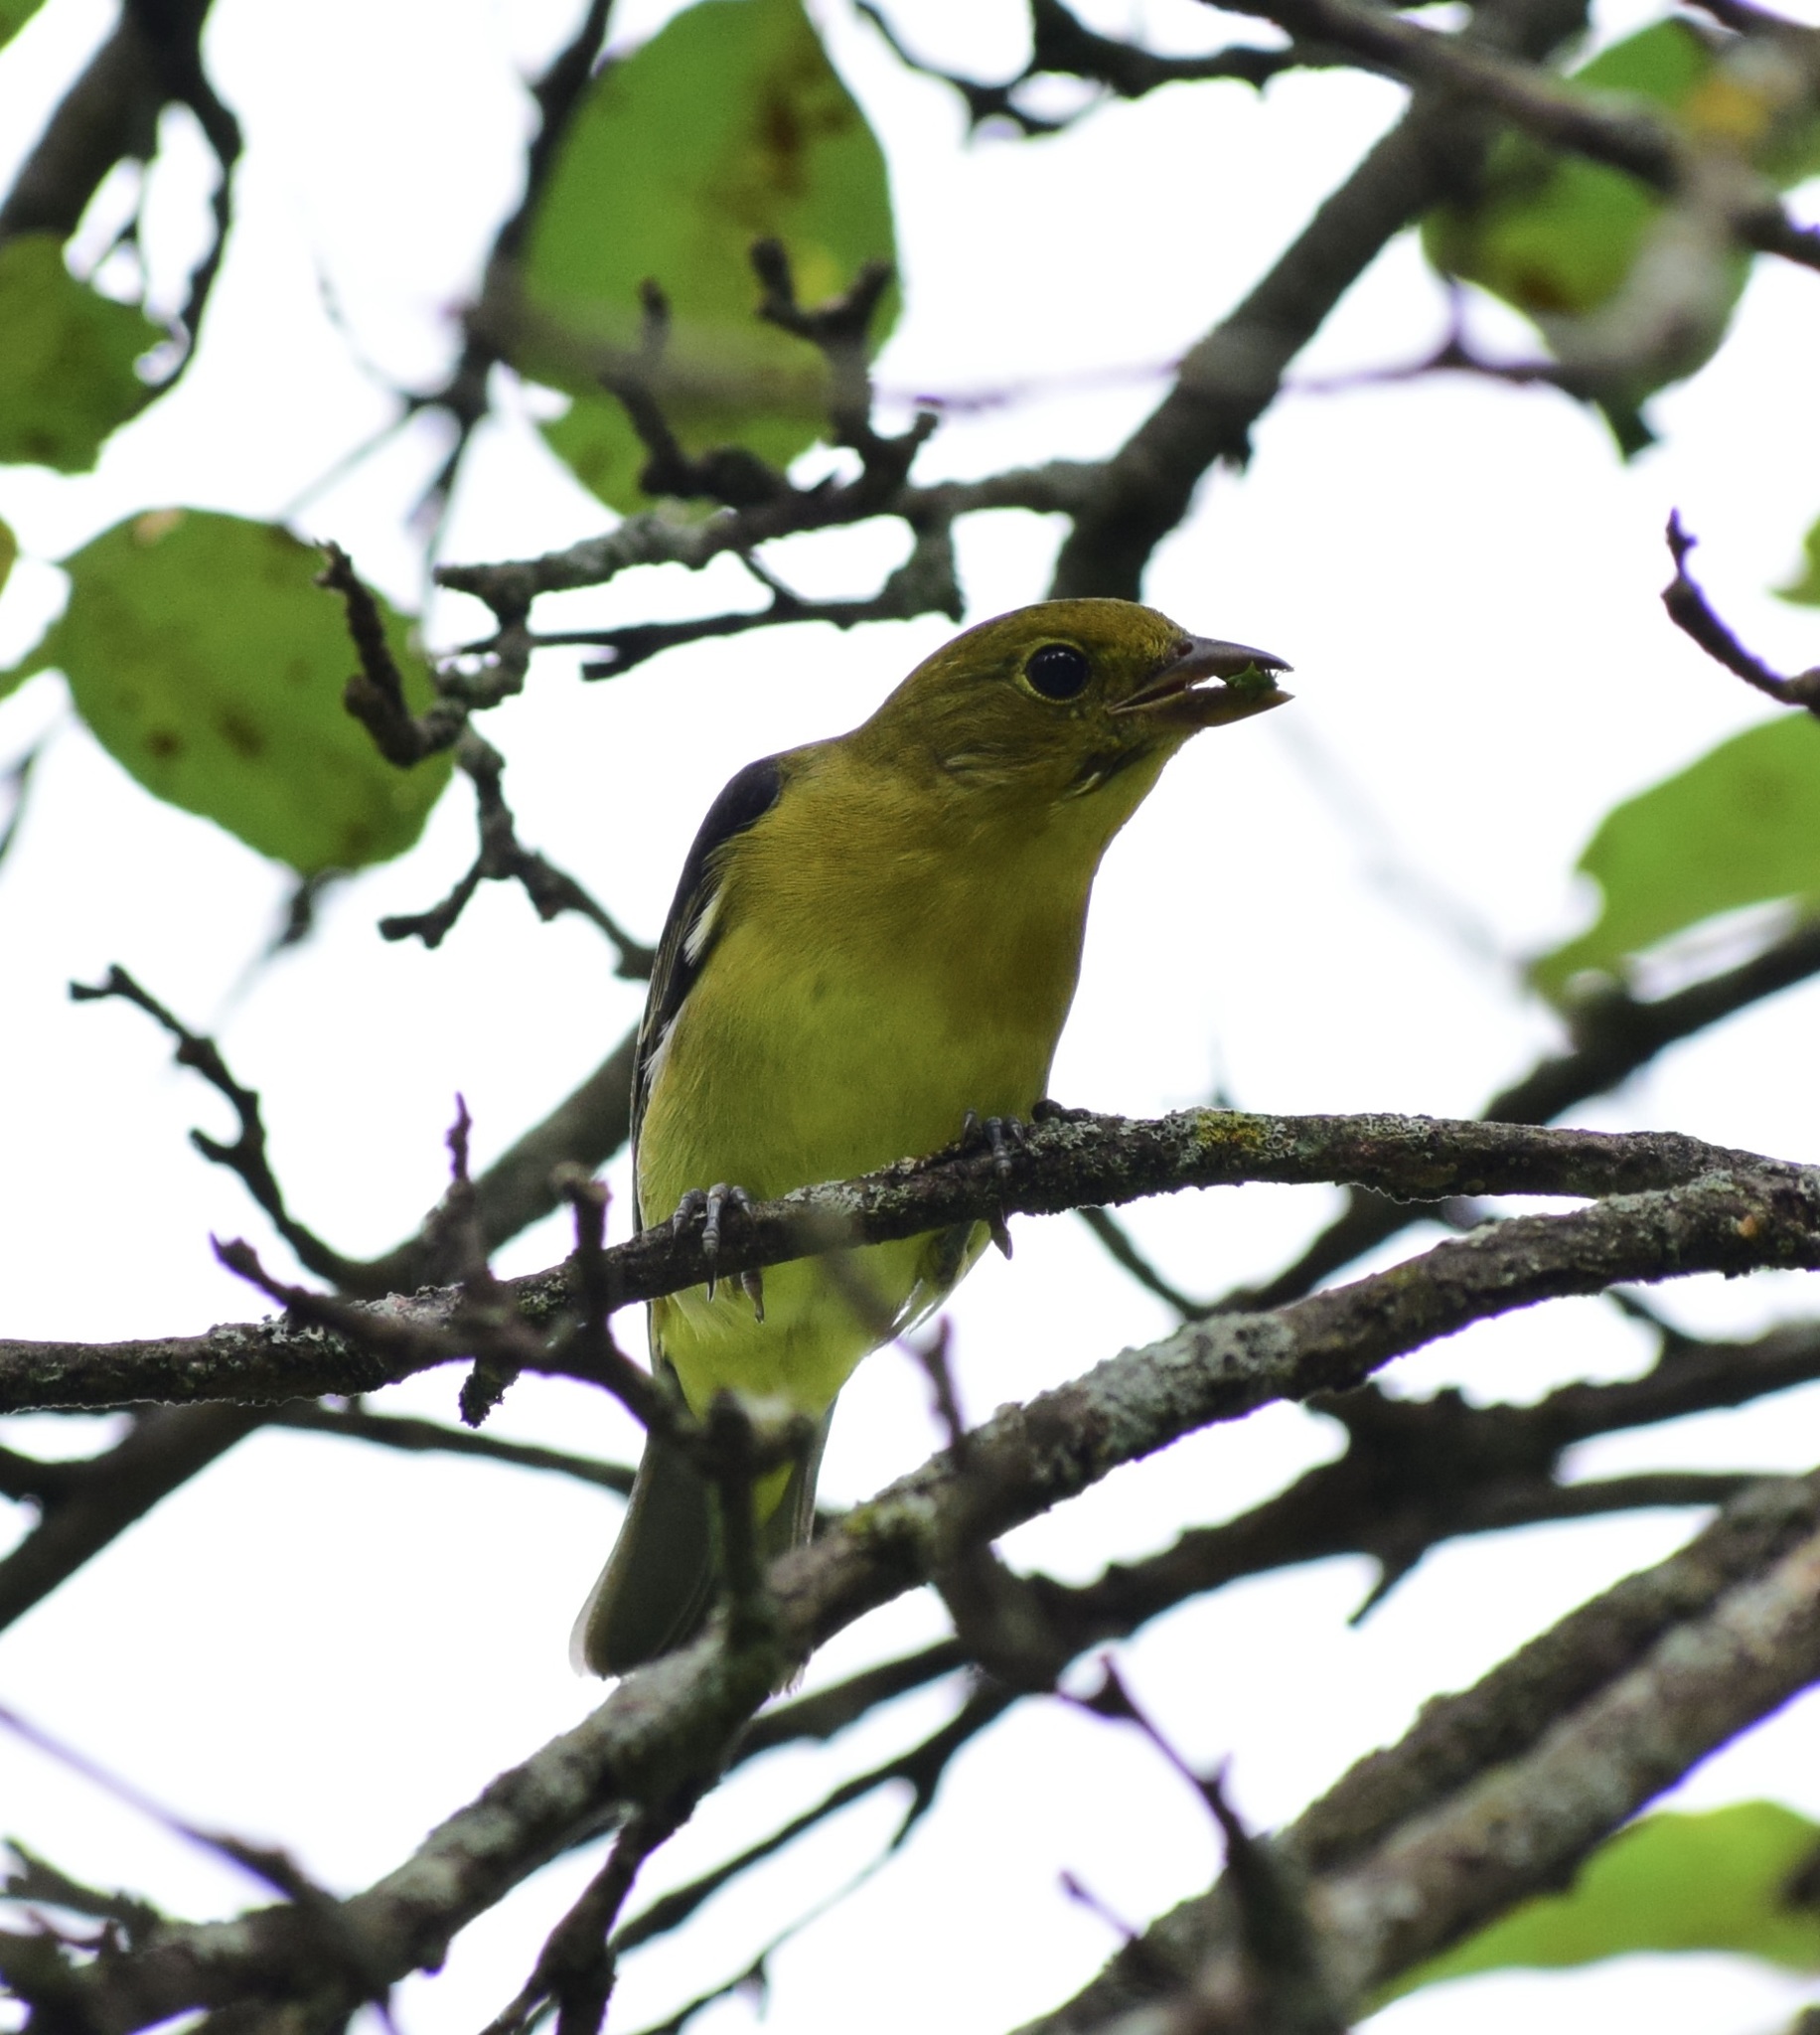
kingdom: Animalia
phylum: Chordata
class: Aves
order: Passeriformes
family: Cardinalidae
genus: Piranga
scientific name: Piranga olivacea
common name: Scarlet tanager
